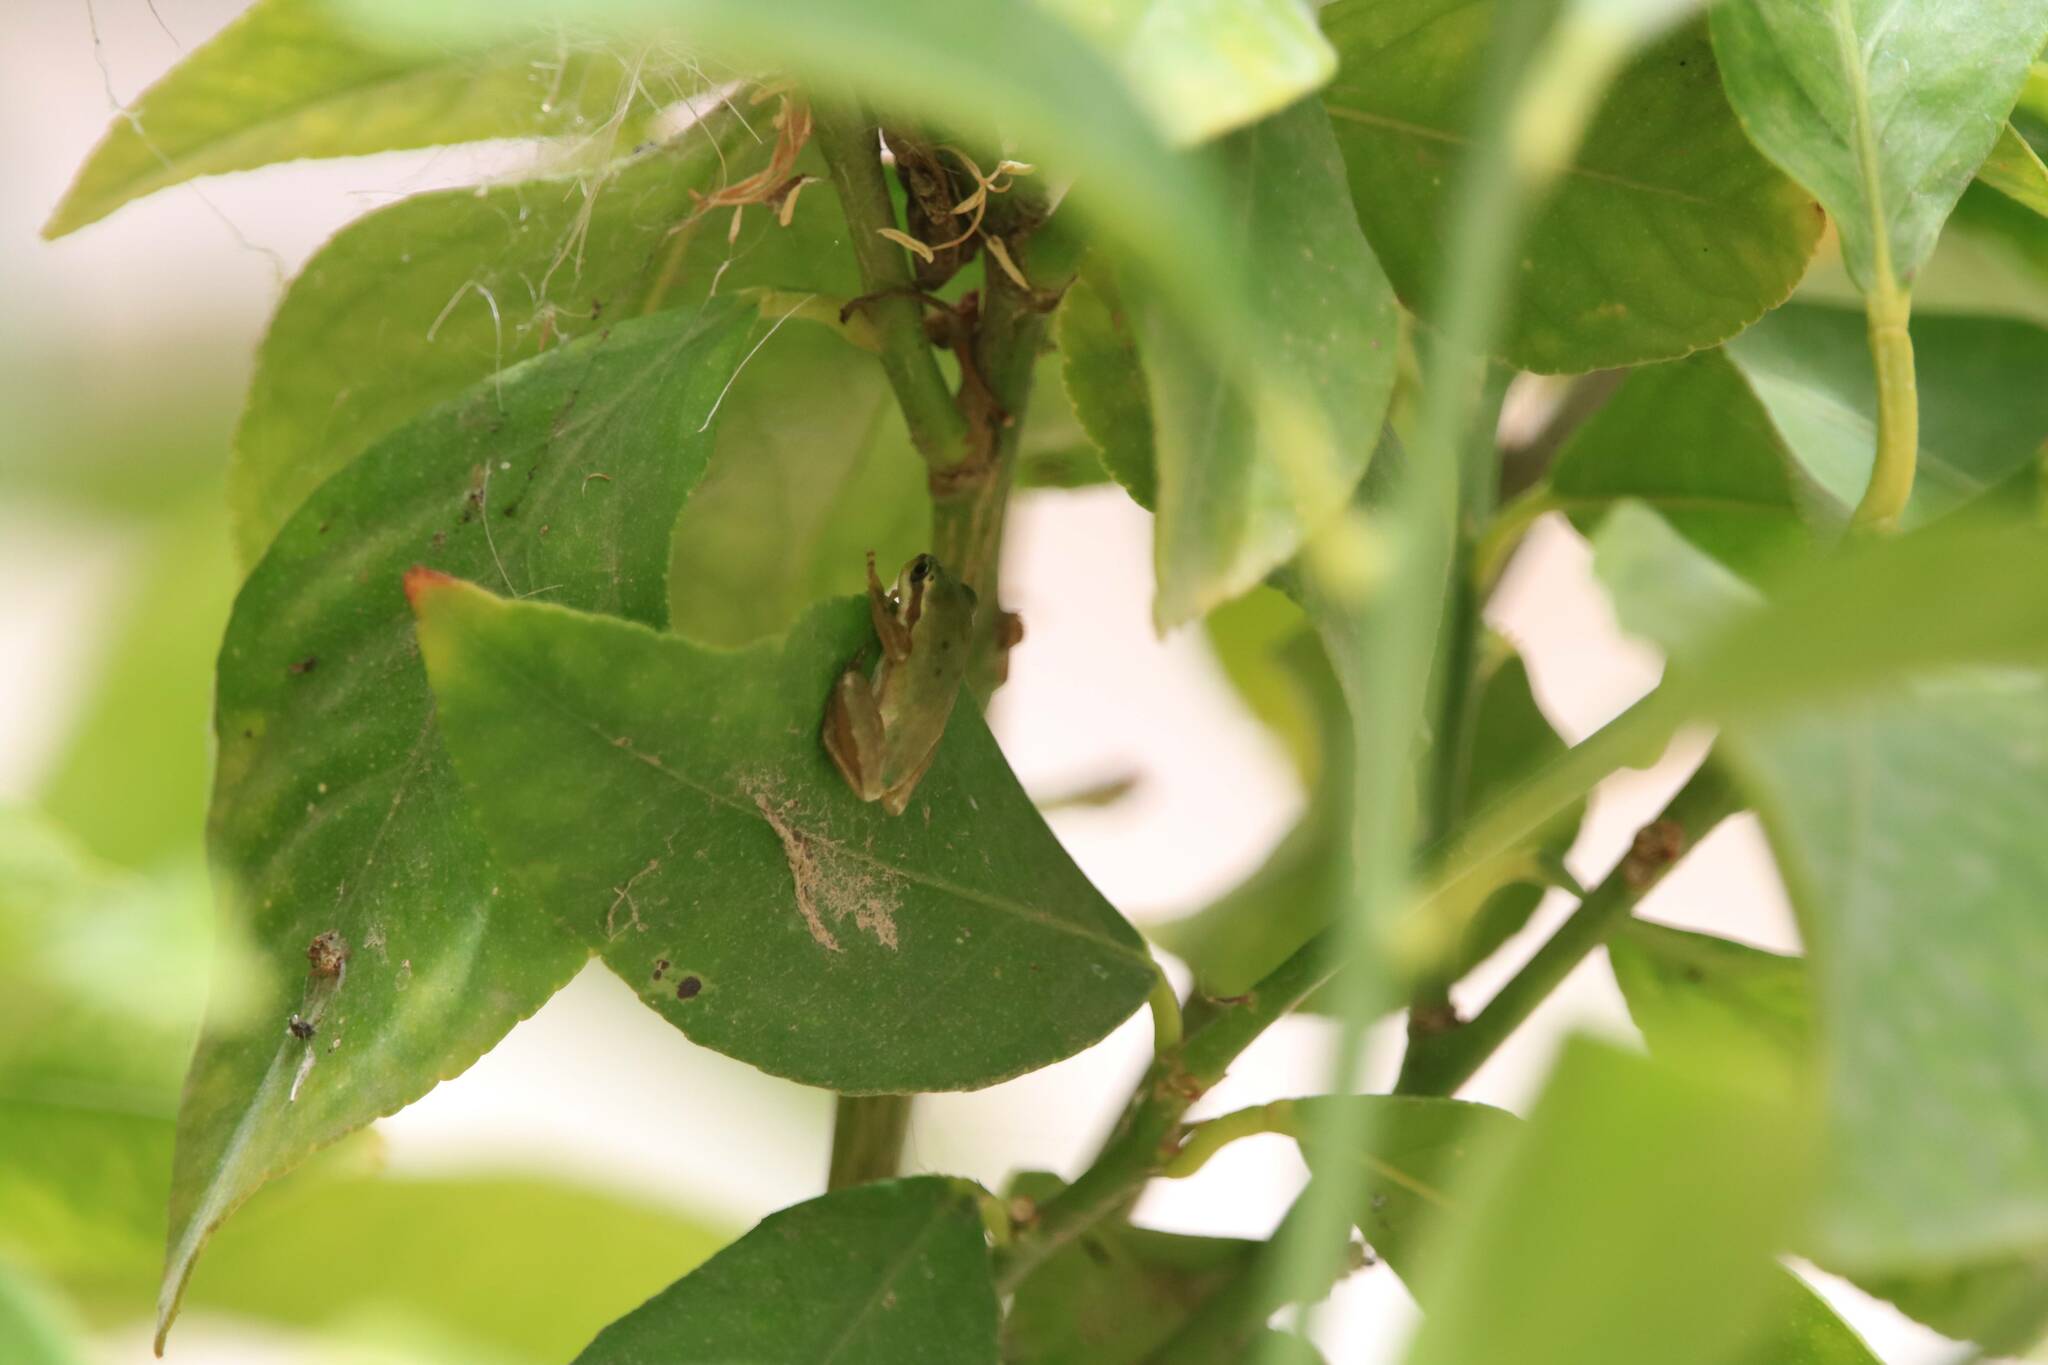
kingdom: Animalia
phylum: Chordata
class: Amphibia
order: Anura
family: Hylidae
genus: Hyla
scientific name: Hyla meridionalis
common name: Stripeless tree frog
